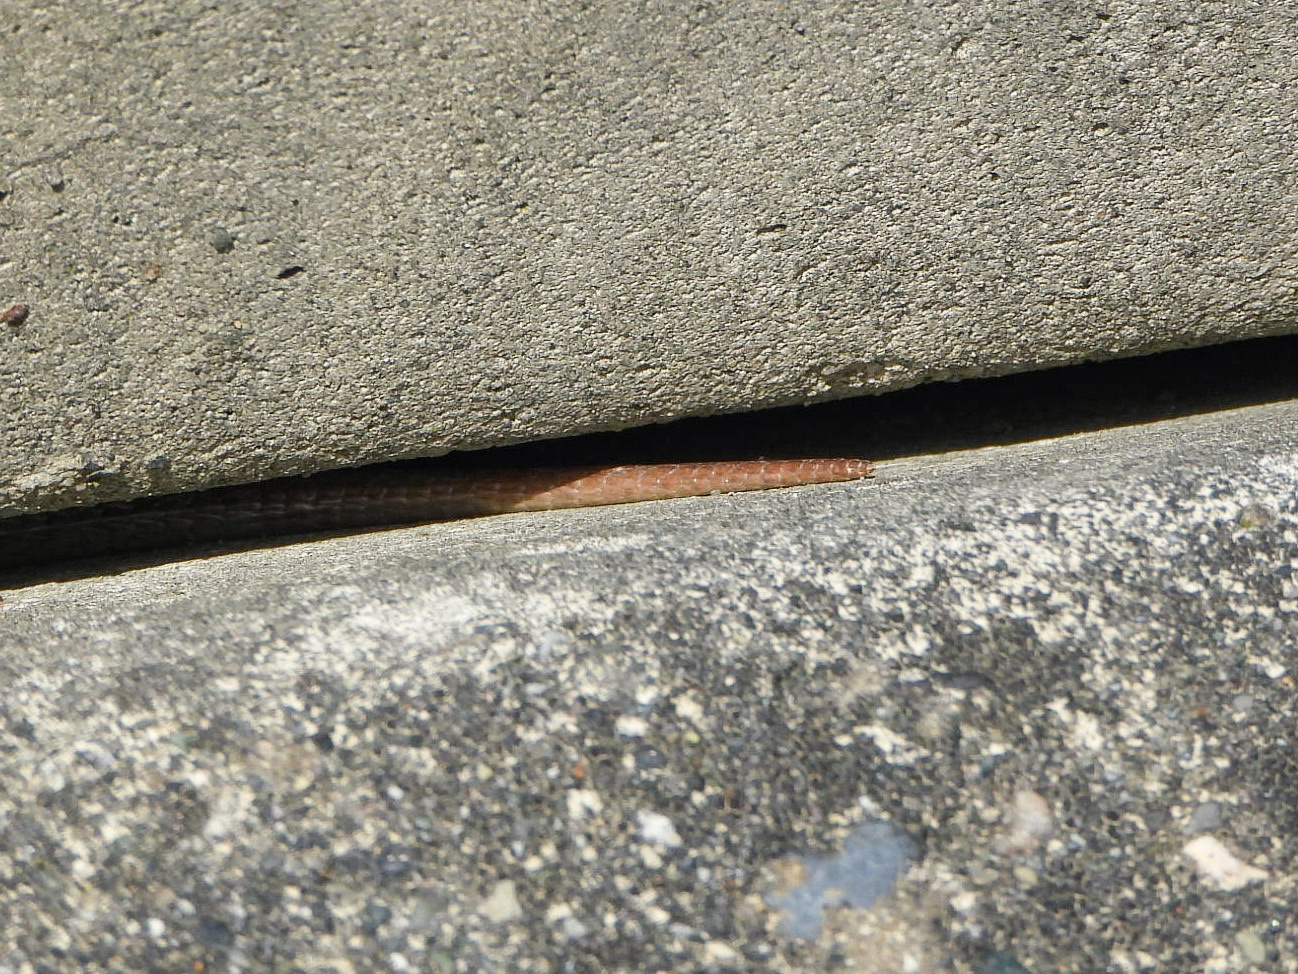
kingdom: Animalia
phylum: Chordata
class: Squamata
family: Anguidae
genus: Elgaria
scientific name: Elgaria coerulea
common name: Northern alligator lizard
